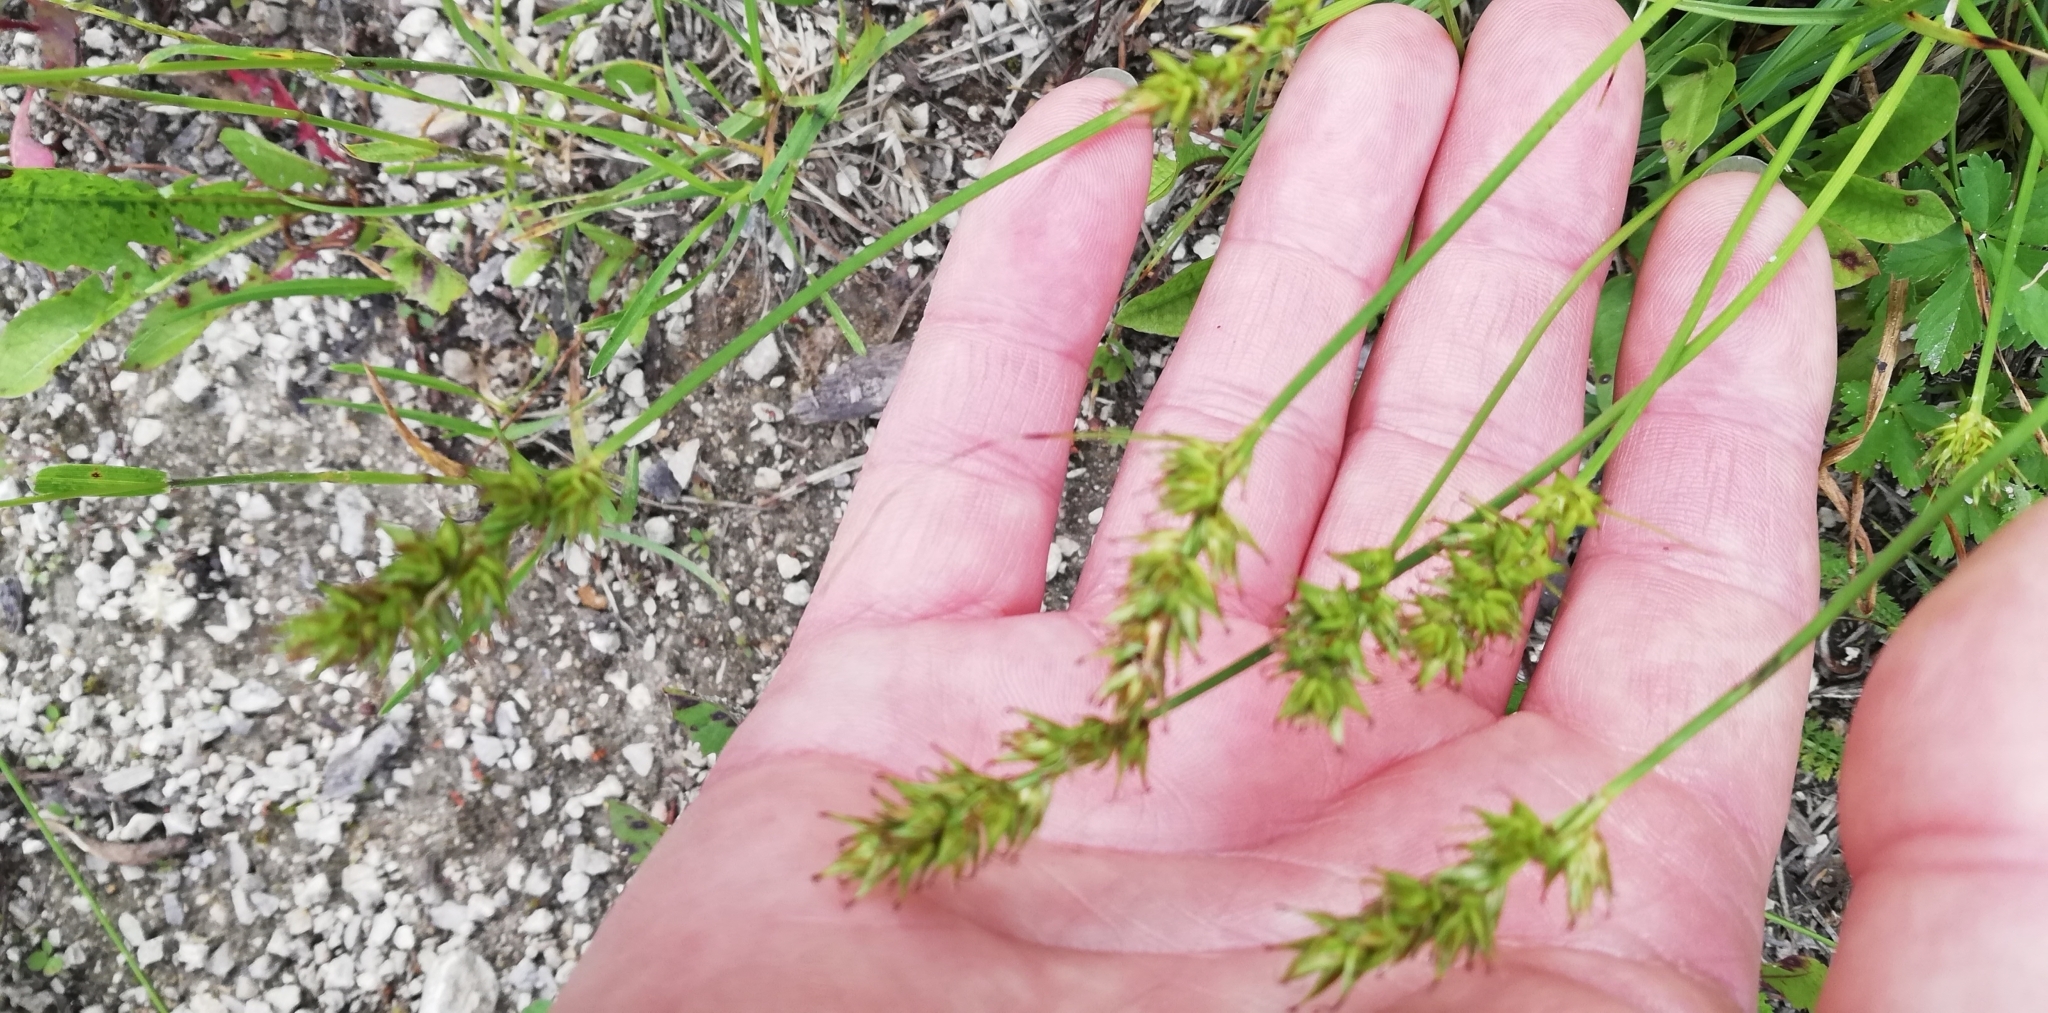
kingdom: Plantae
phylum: Tracheophyta
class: Liliopsida
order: Poales
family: Cyperaceae
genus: Carex
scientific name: Carex spicata
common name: Spiked sedge
